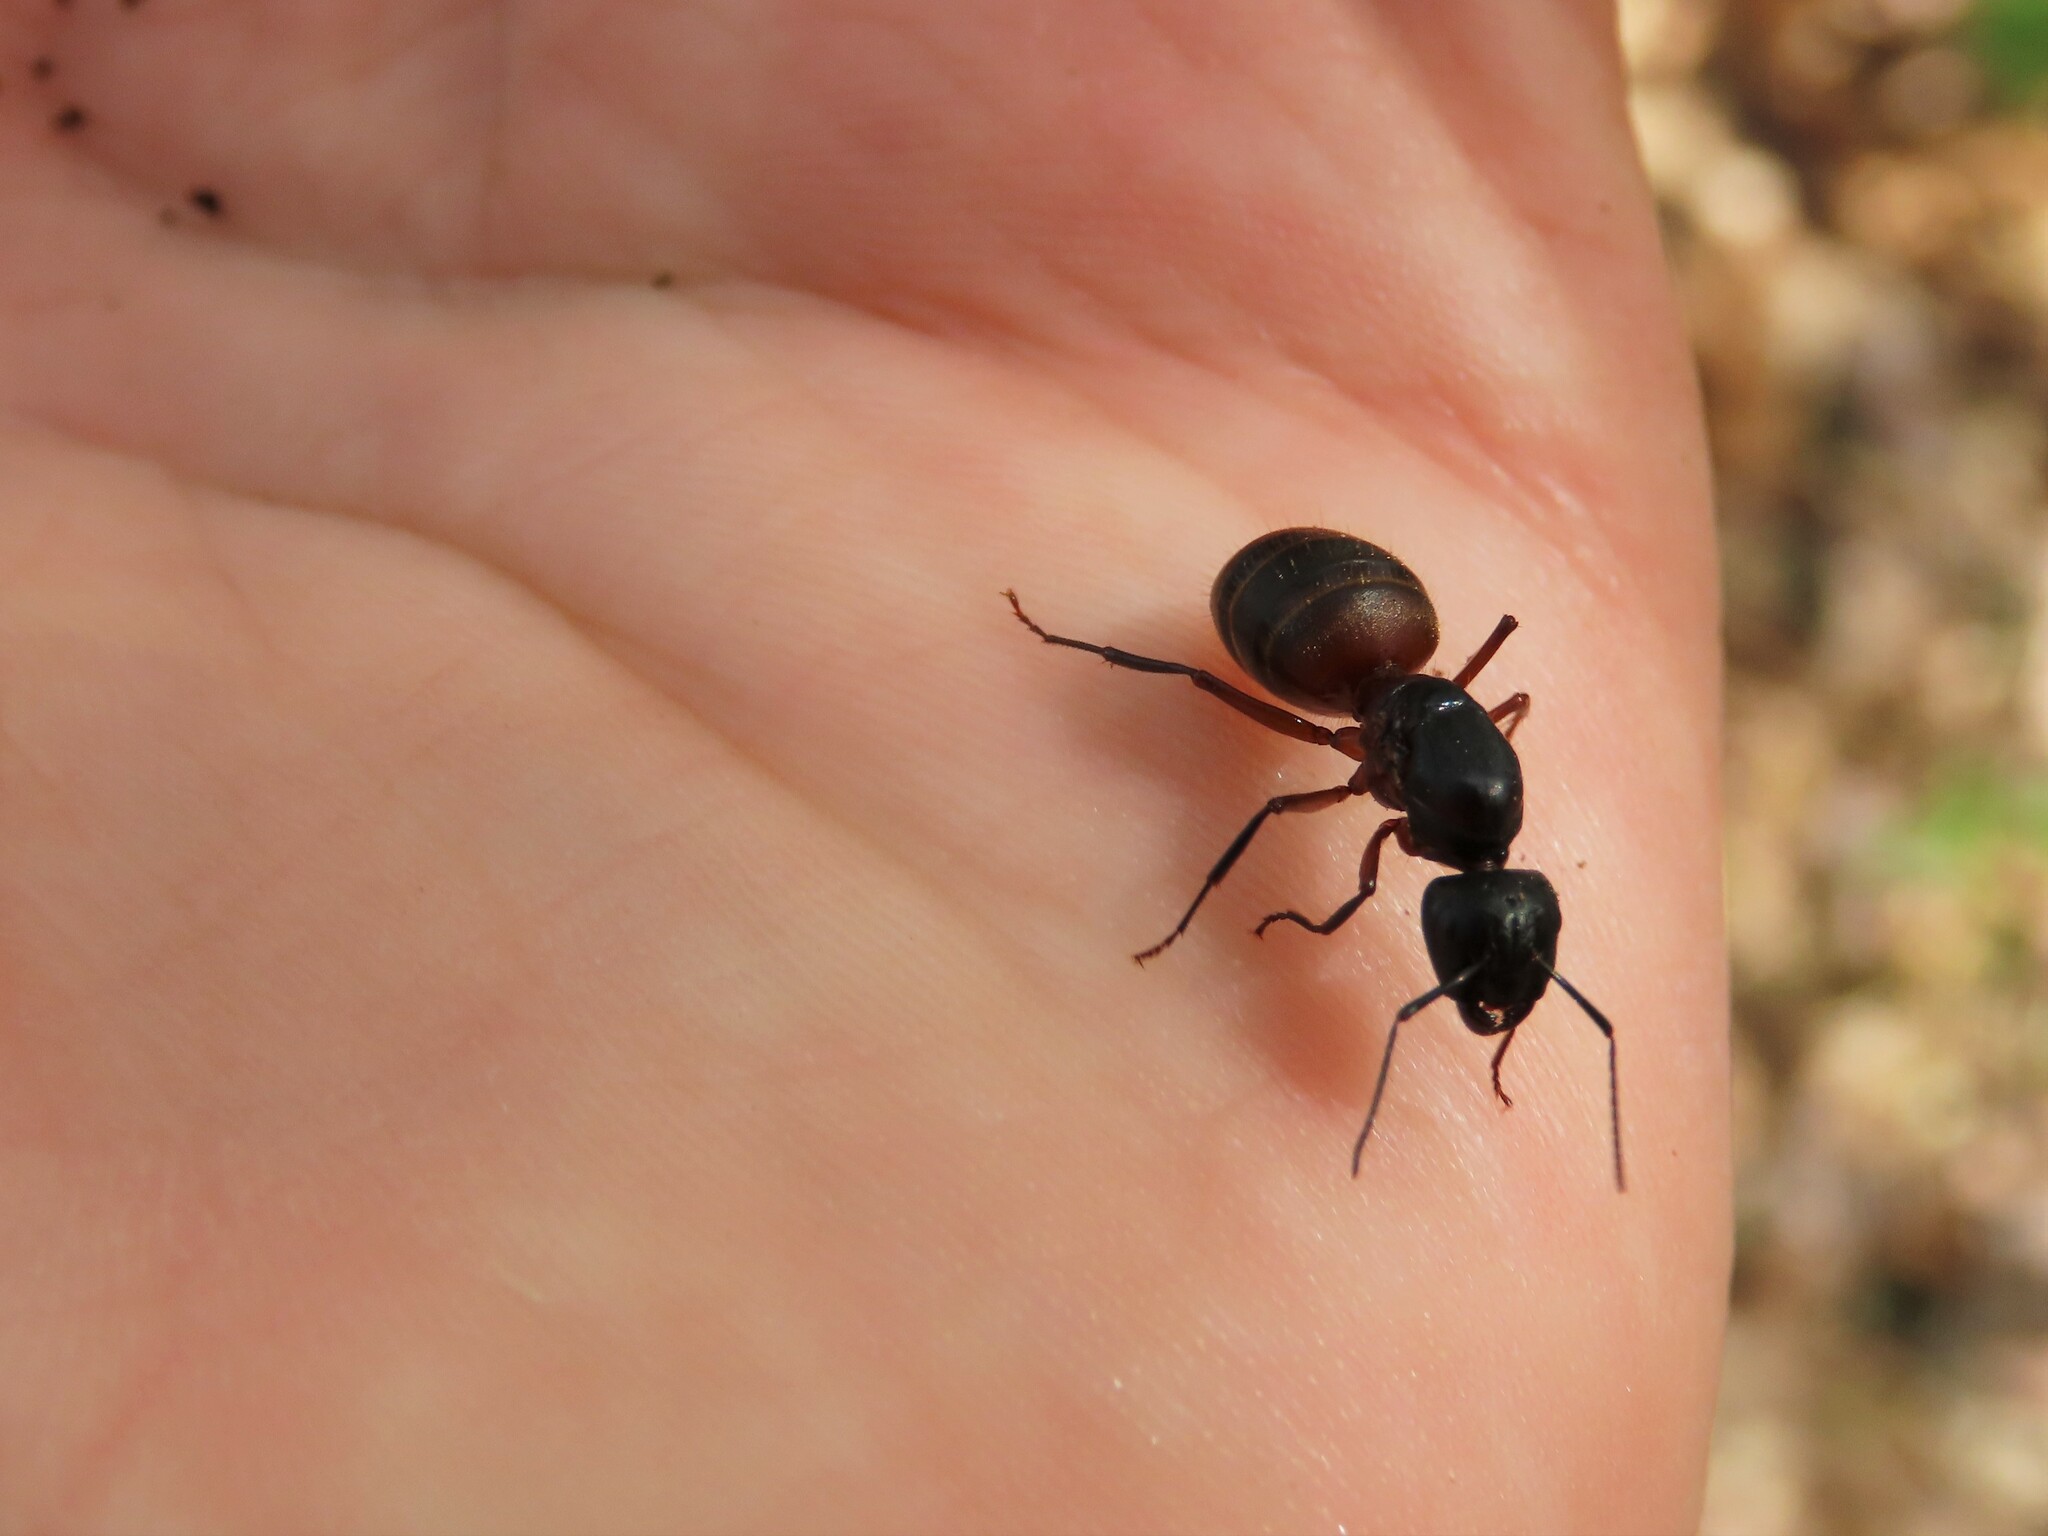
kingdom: Animalia
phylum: Arthropoda
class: Insecta
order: Hymenoptera
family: Formicidae
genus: Camponotus
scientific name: Camponotus chromaiodes
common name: Red carpenter ant
